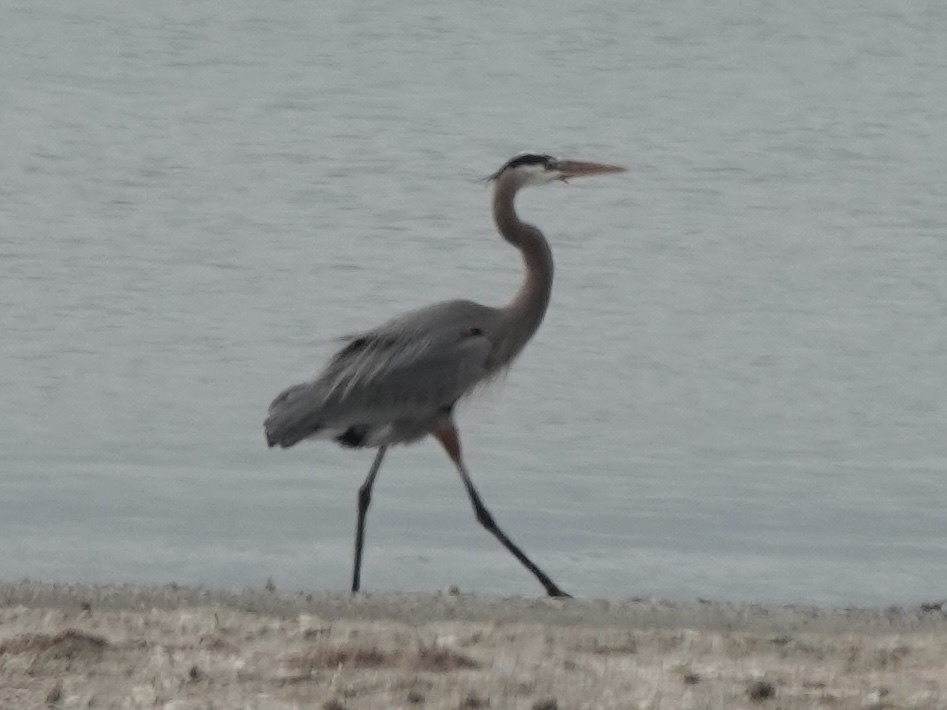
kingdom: Animalia
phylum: Chordata
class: Aves
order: Pelecaniformes
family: Ardeidae
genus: Ardea
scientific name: Ardea herodias
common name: Great blue heron
